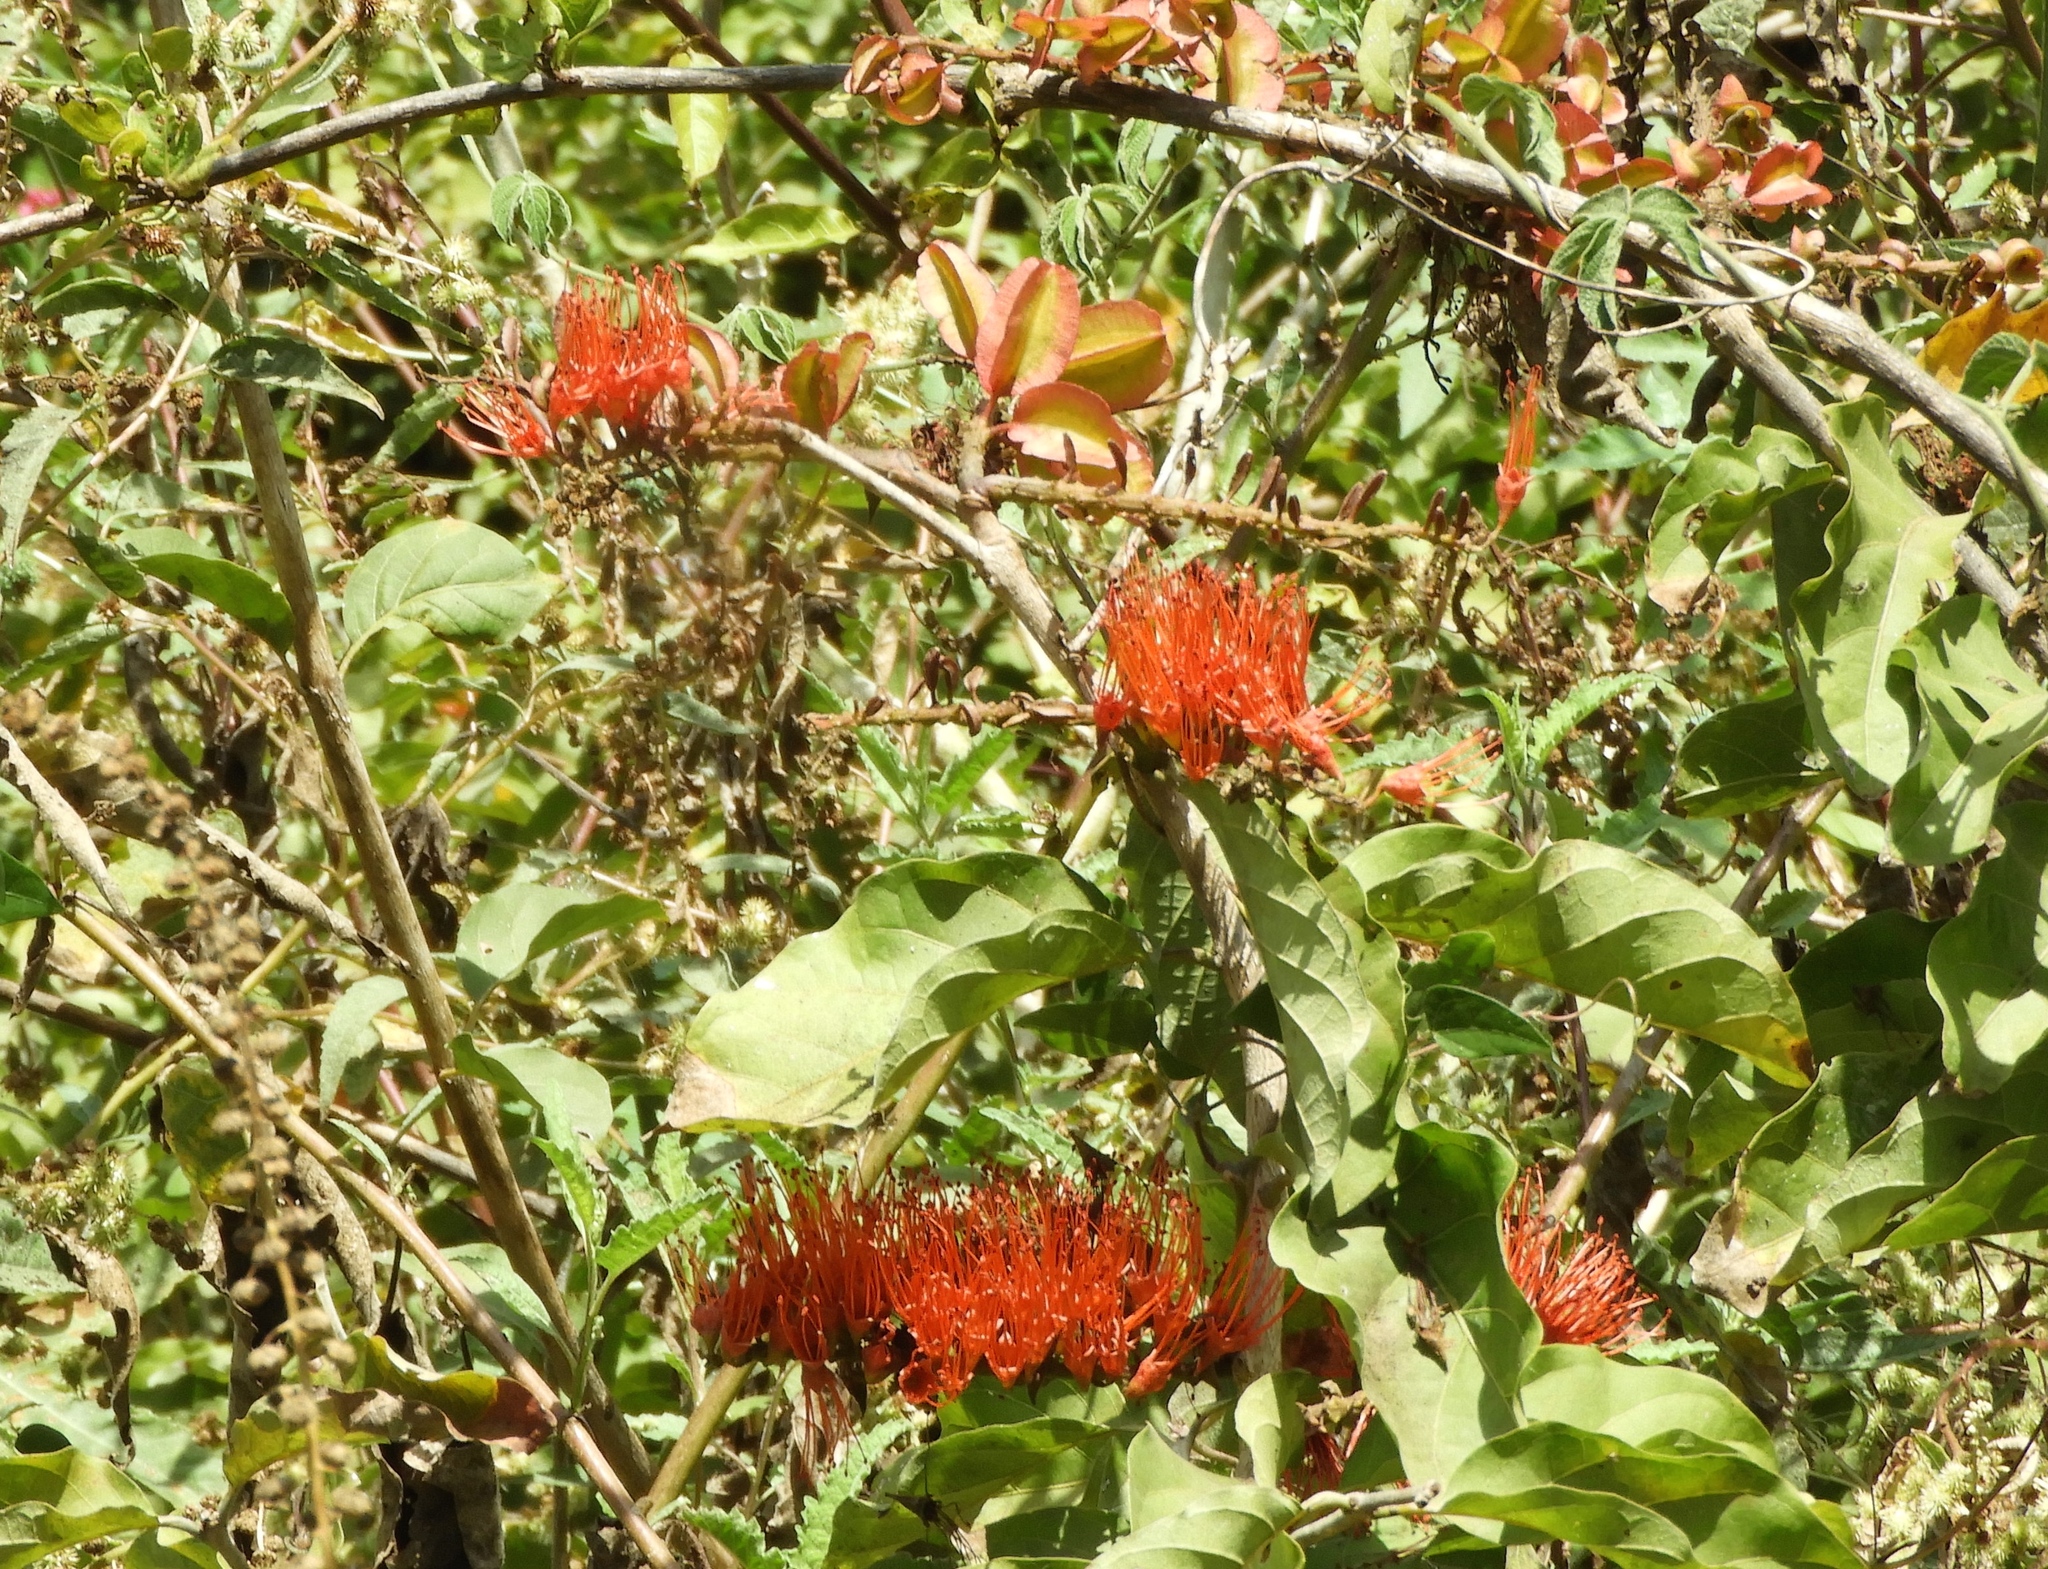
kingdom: Plantae
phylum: Tracheophyta
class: Magnoliopsida
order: Myrtales
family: Combretaceae
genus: Combretum
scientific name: Combretum farinosum
